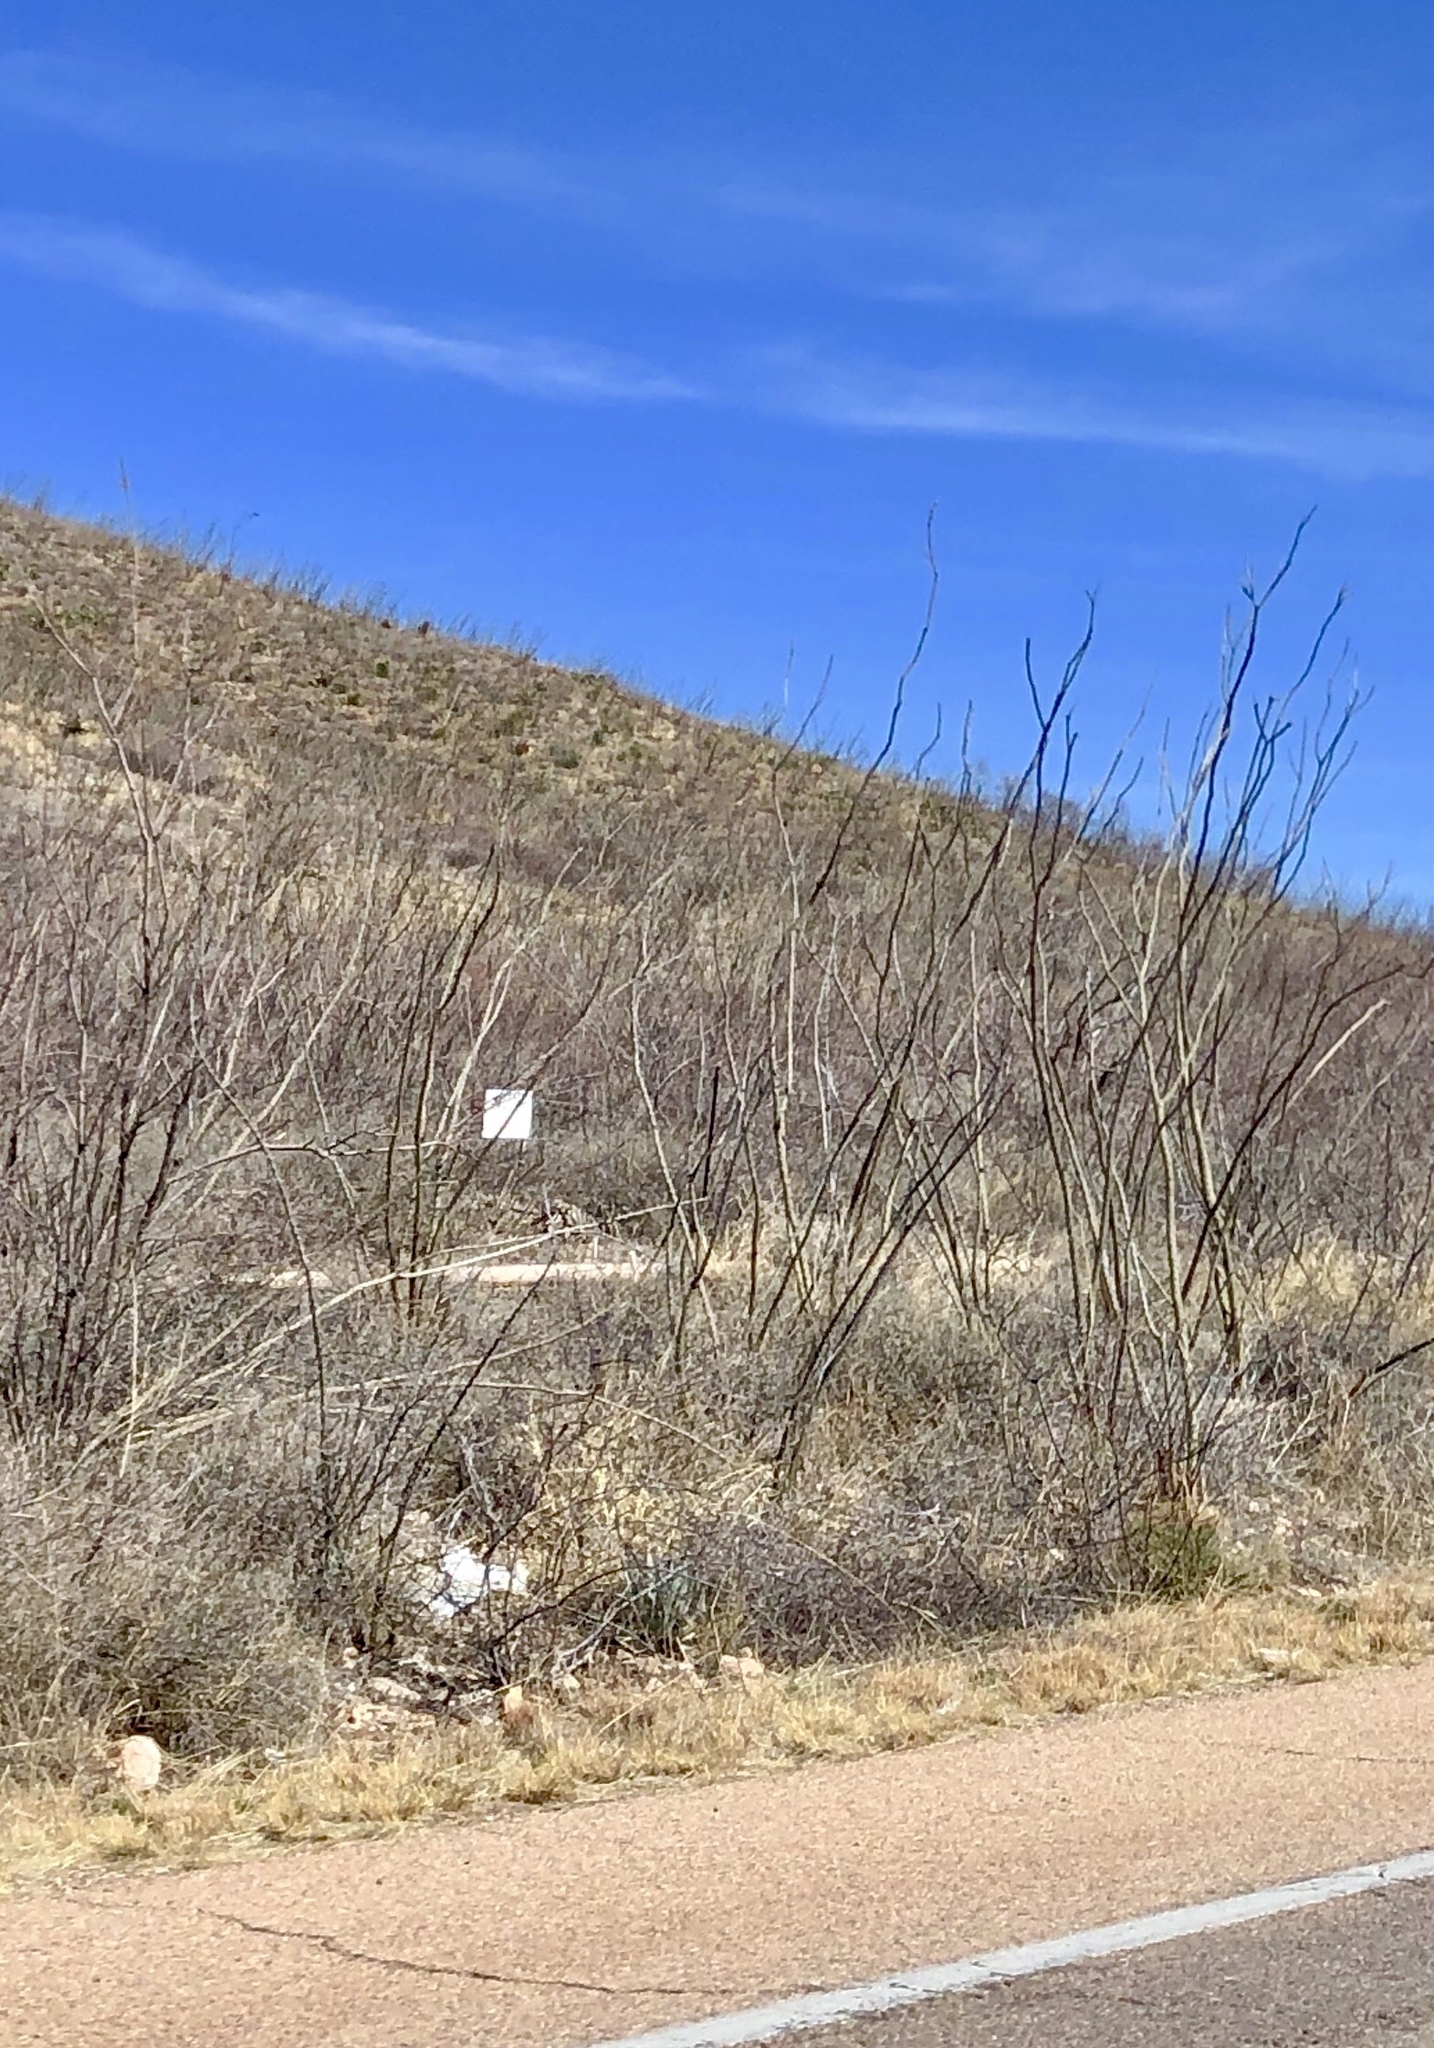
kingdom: Plantae
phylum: Tracheophyta
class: Magnoliopsida
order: Ericales
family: Fouquieriaceae
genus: Fouquieria
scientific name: Fouquieria splendens
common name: Vine-cactus
